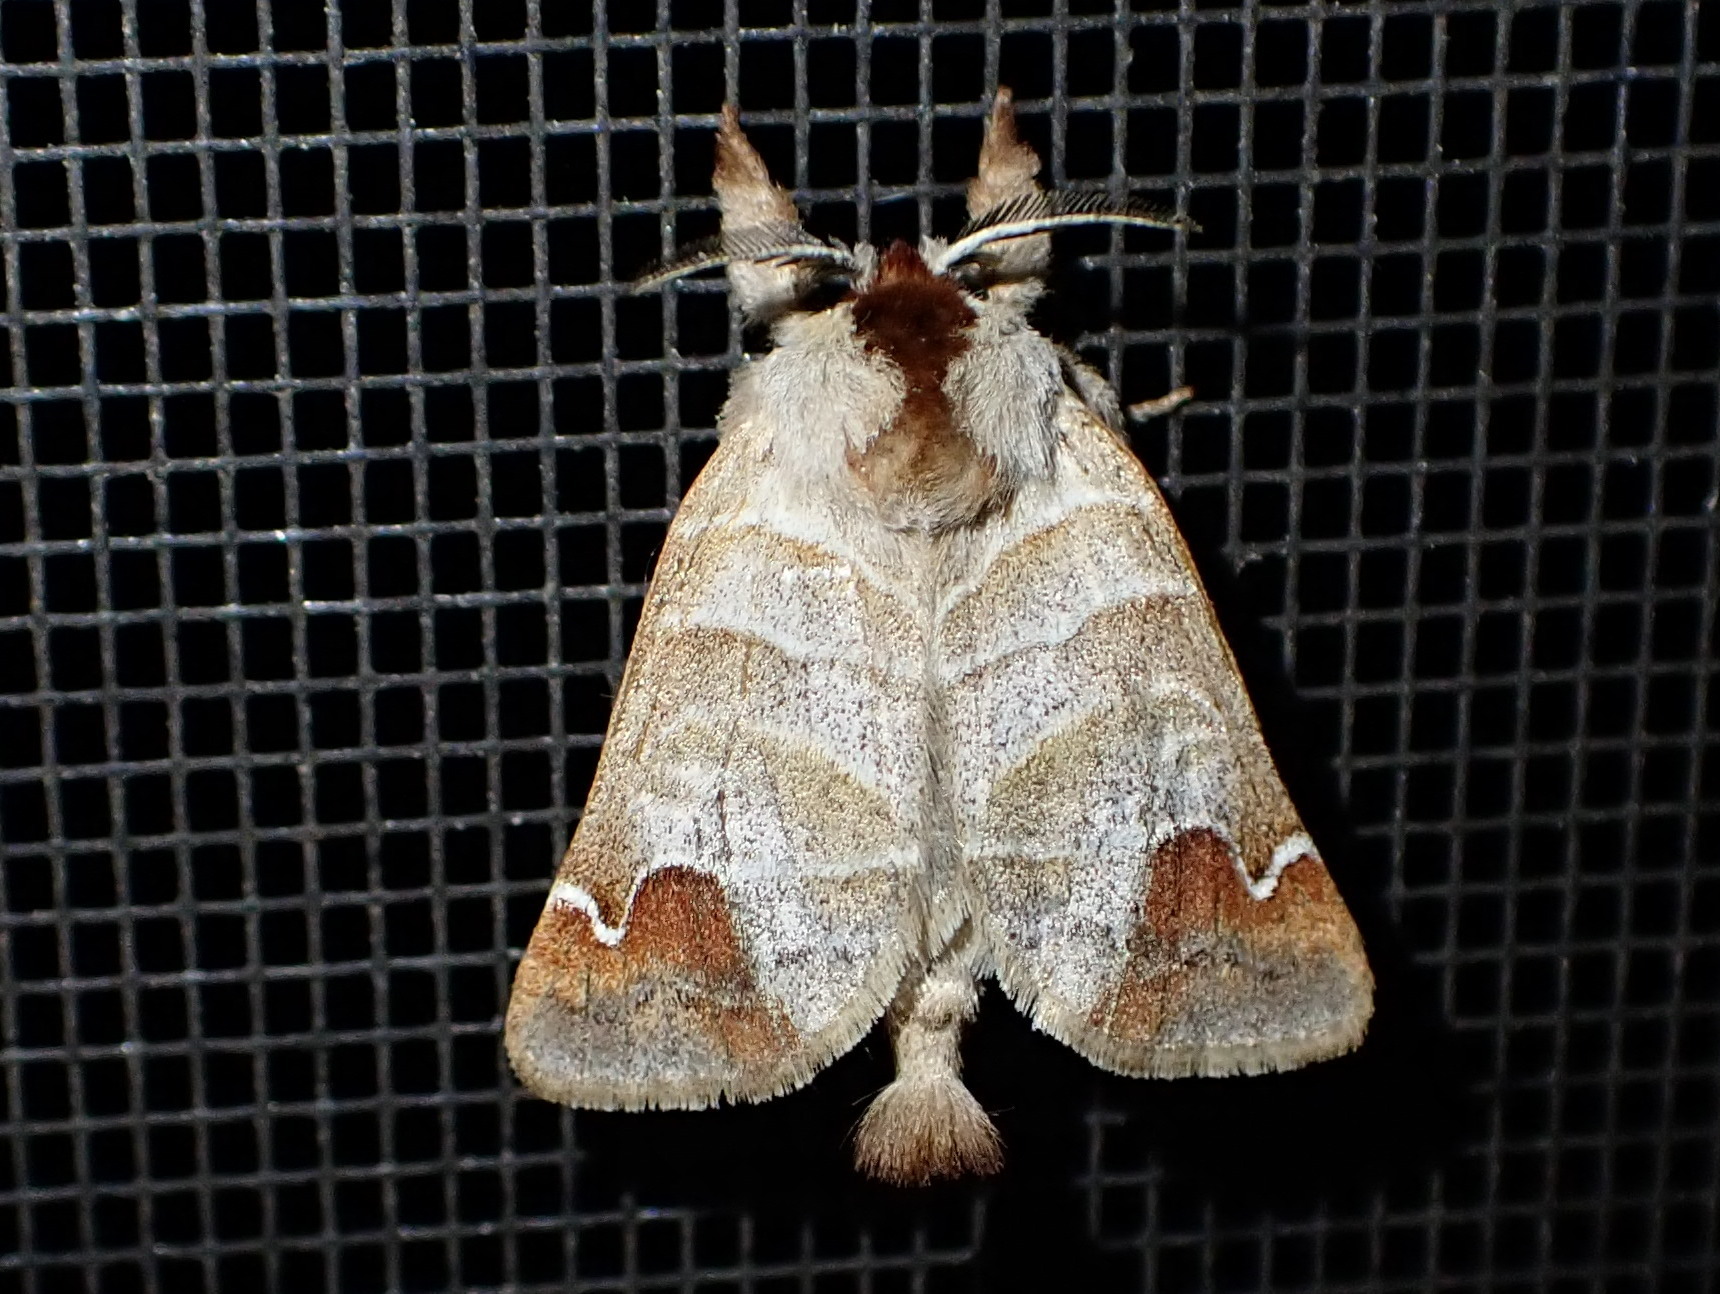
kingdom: Animalia
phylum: Arthropoda
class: Insecta
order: Lepidoptera
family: Notodontidae
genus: Clostera
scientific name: Clostera albosigma
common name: Sigmoid prominent
